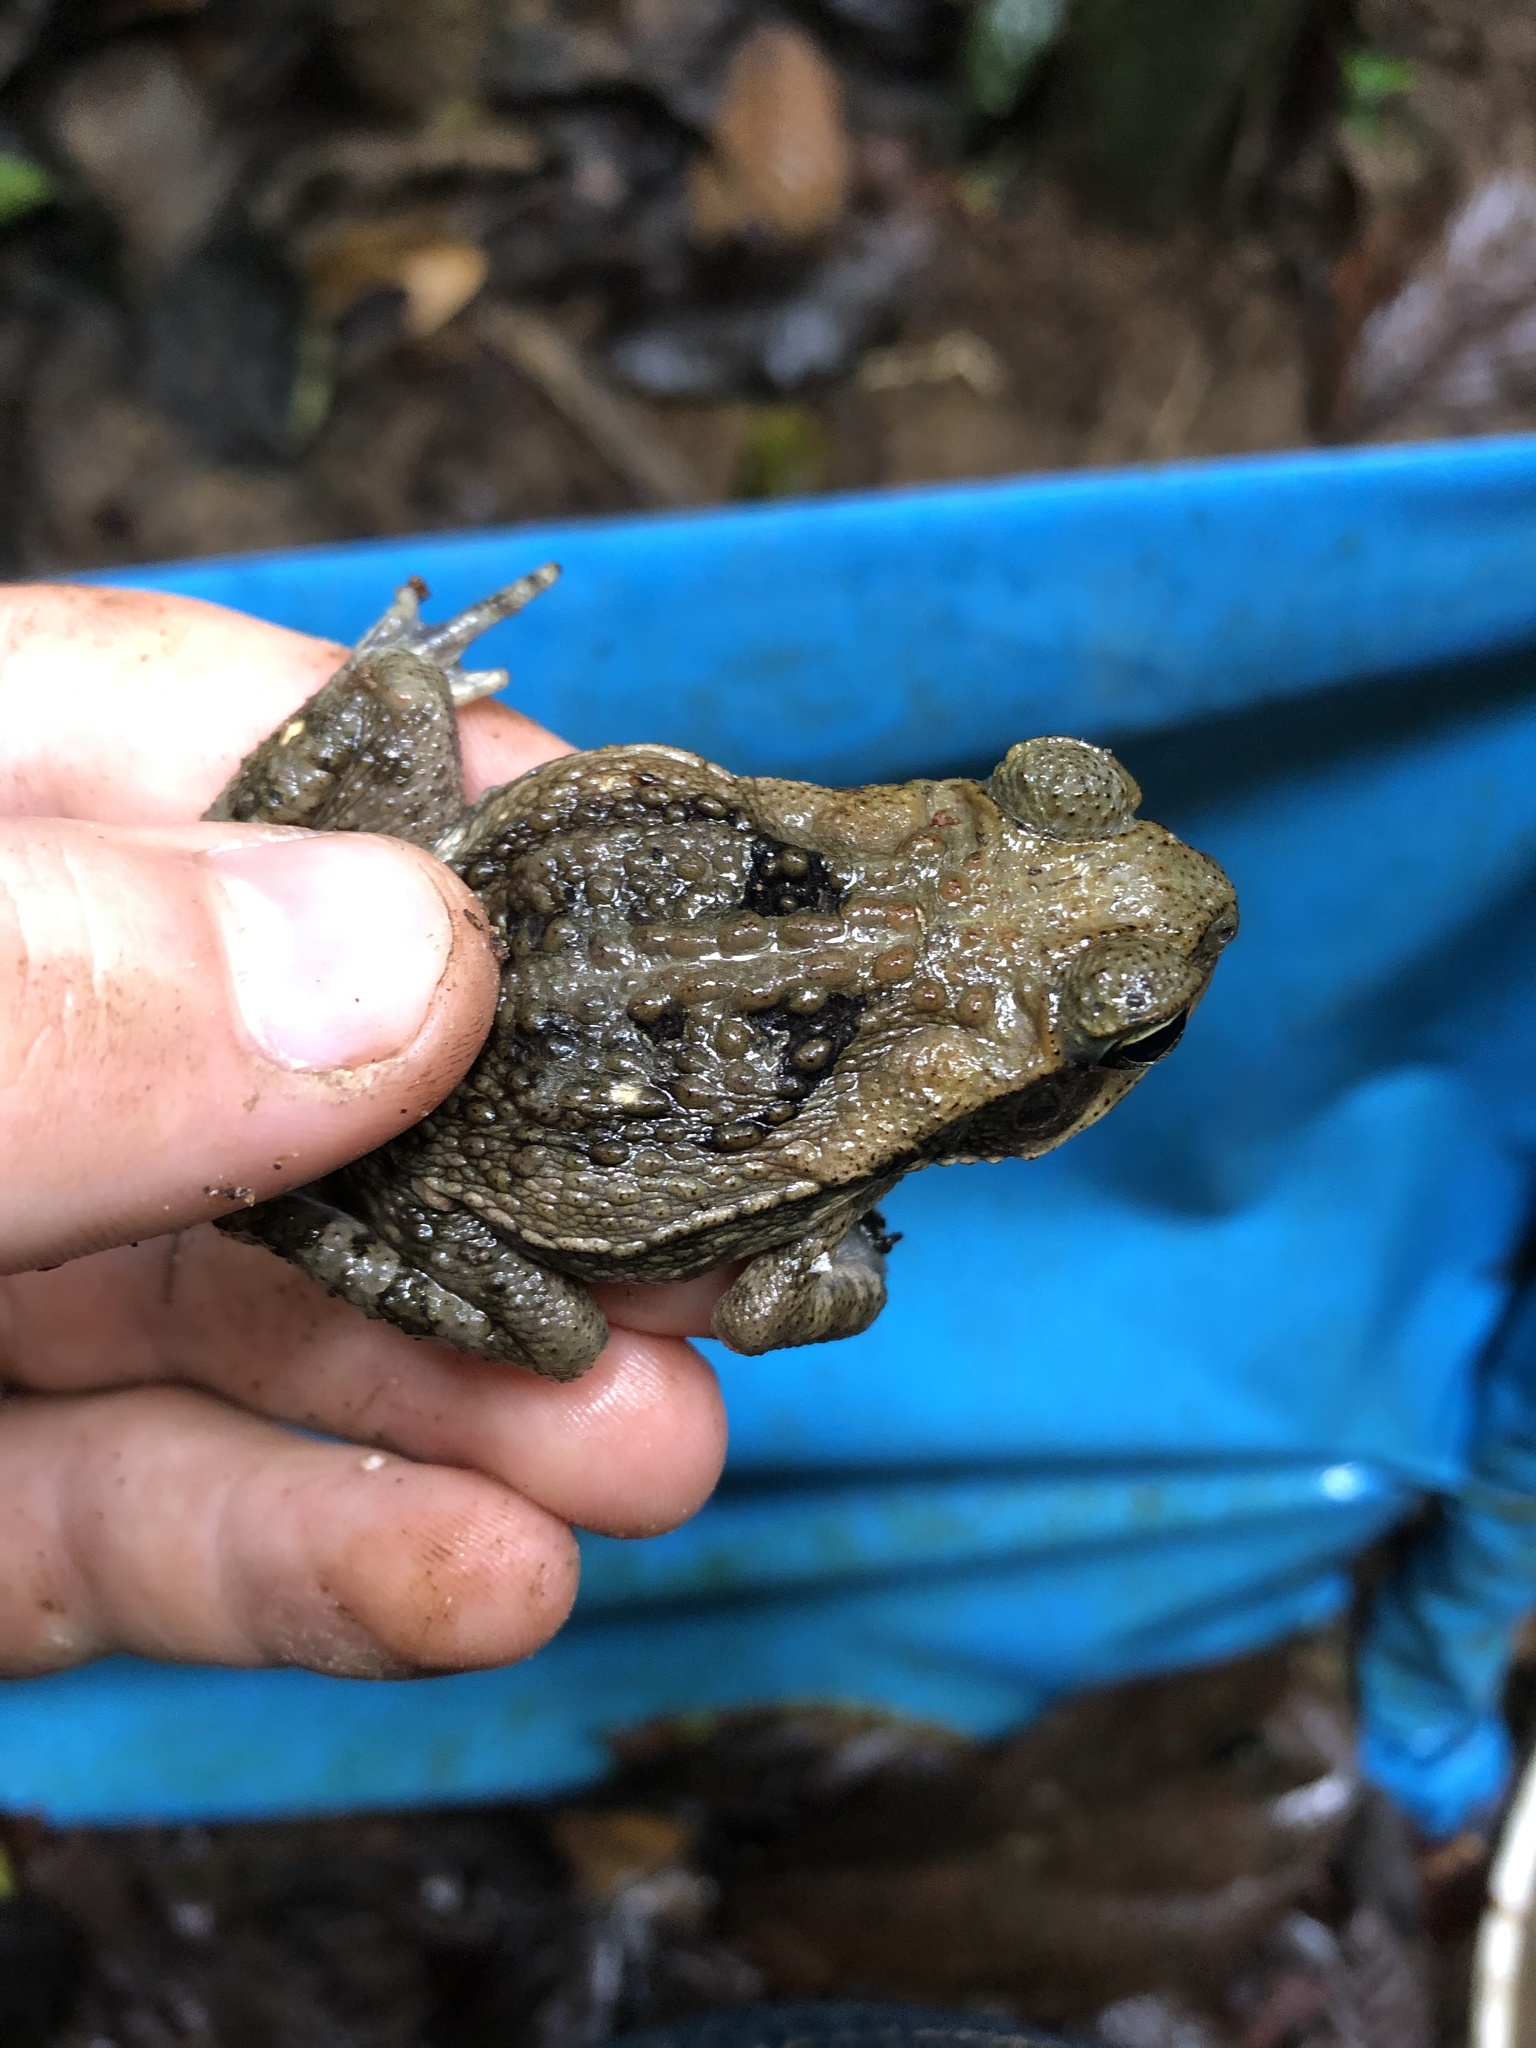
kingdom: Animalia
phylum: Chordata
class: Amphibia
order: Anura
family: Bufonidae
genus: Rhinella
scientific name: Rhinella marina
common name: Cane toad
